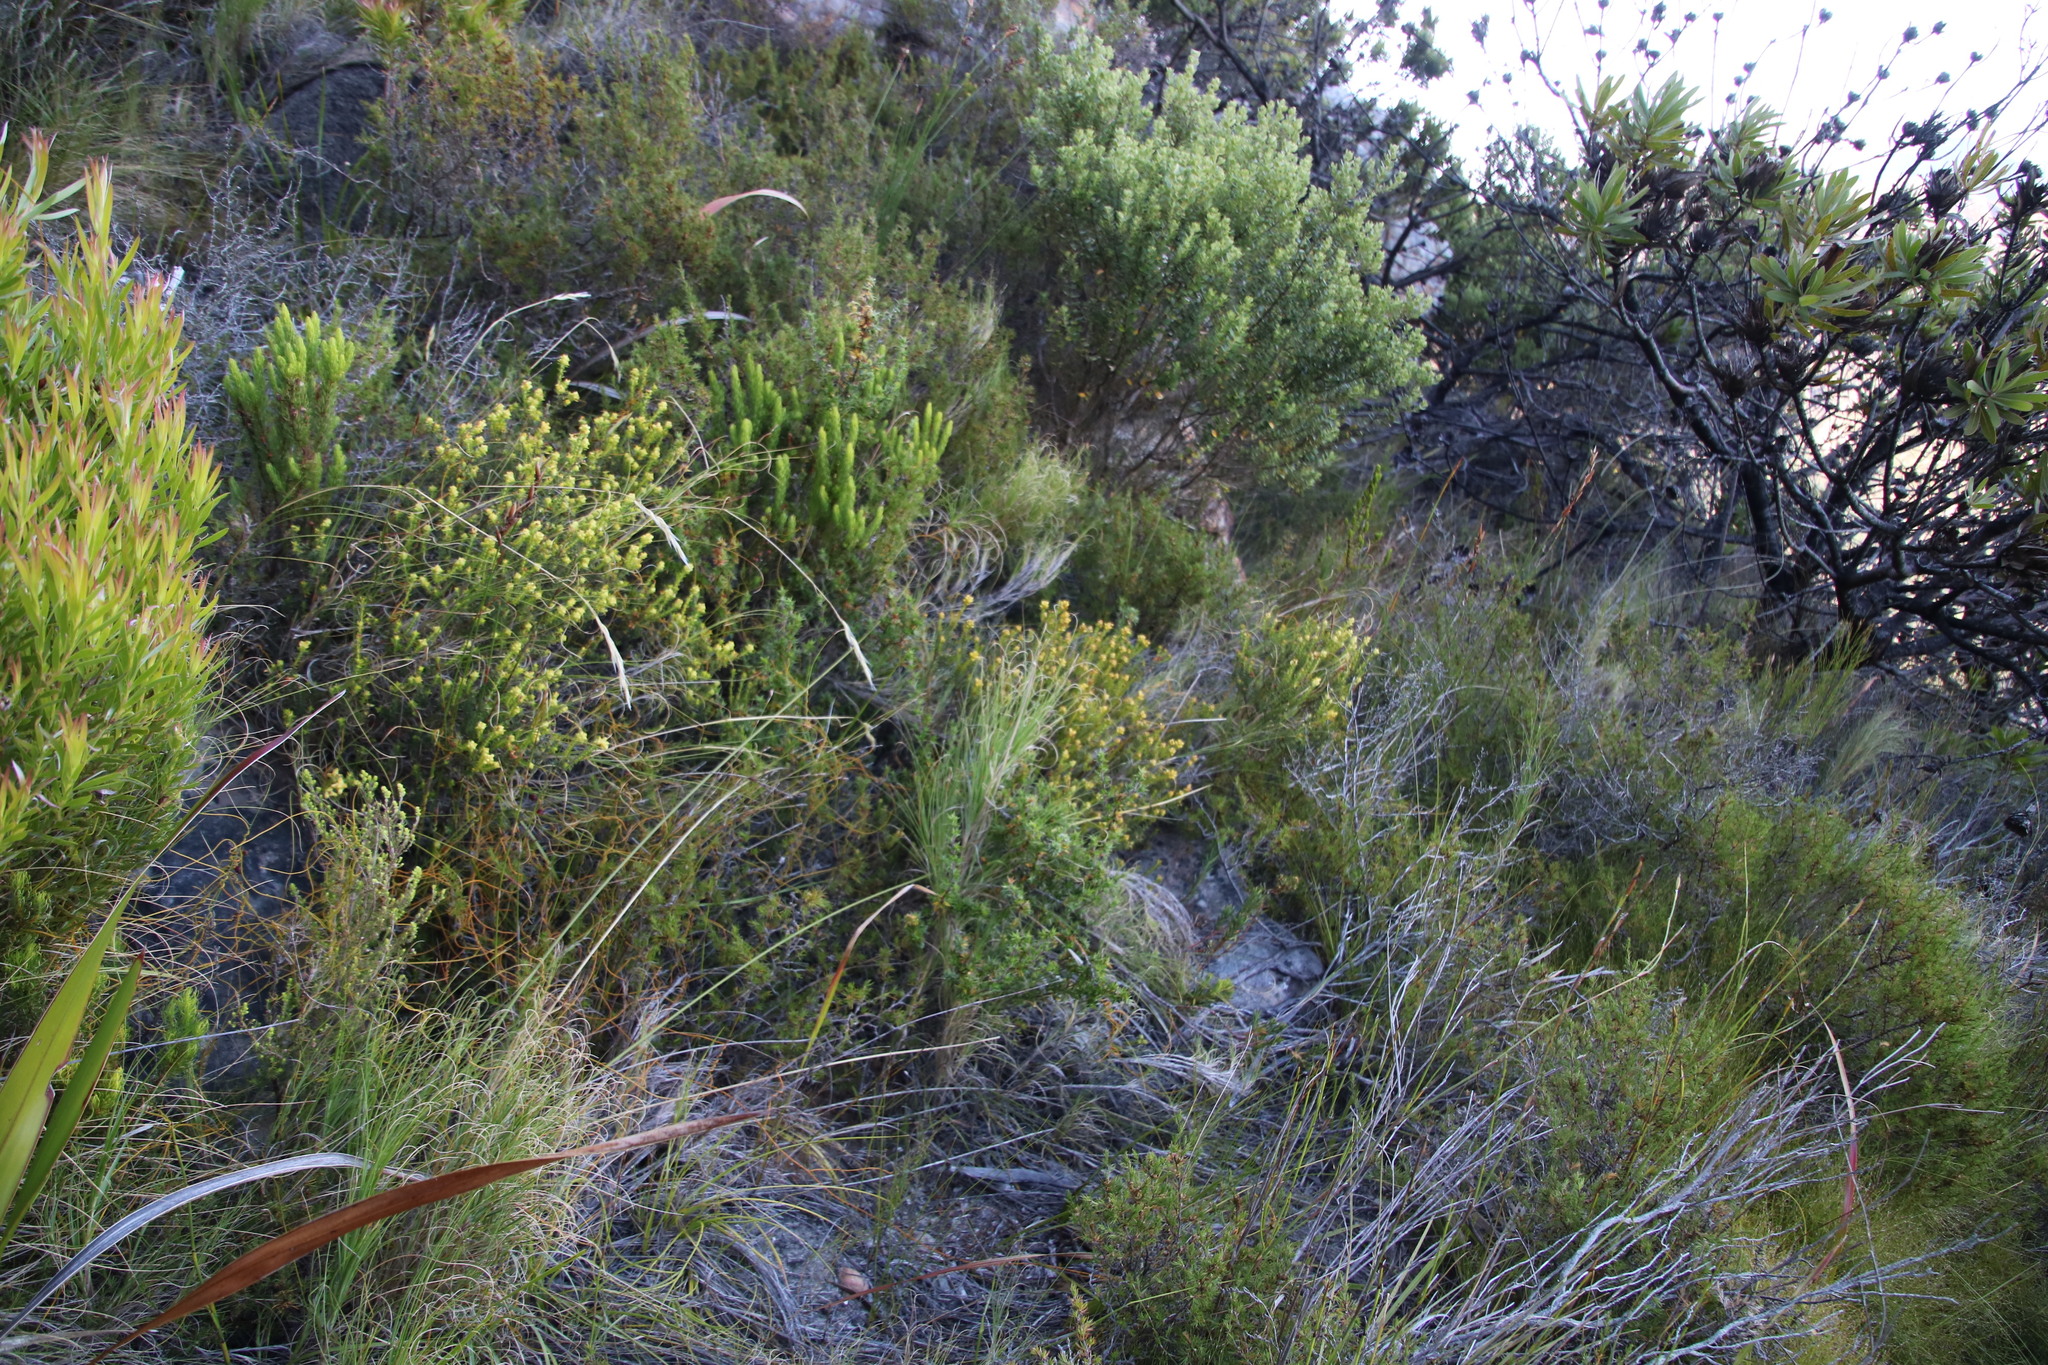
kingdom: Plantae
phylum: Tracheophyta
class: Magnoliopsida
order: Myrtales
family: Penaeaceae
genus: Penaea
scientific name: Penaea mucronata
